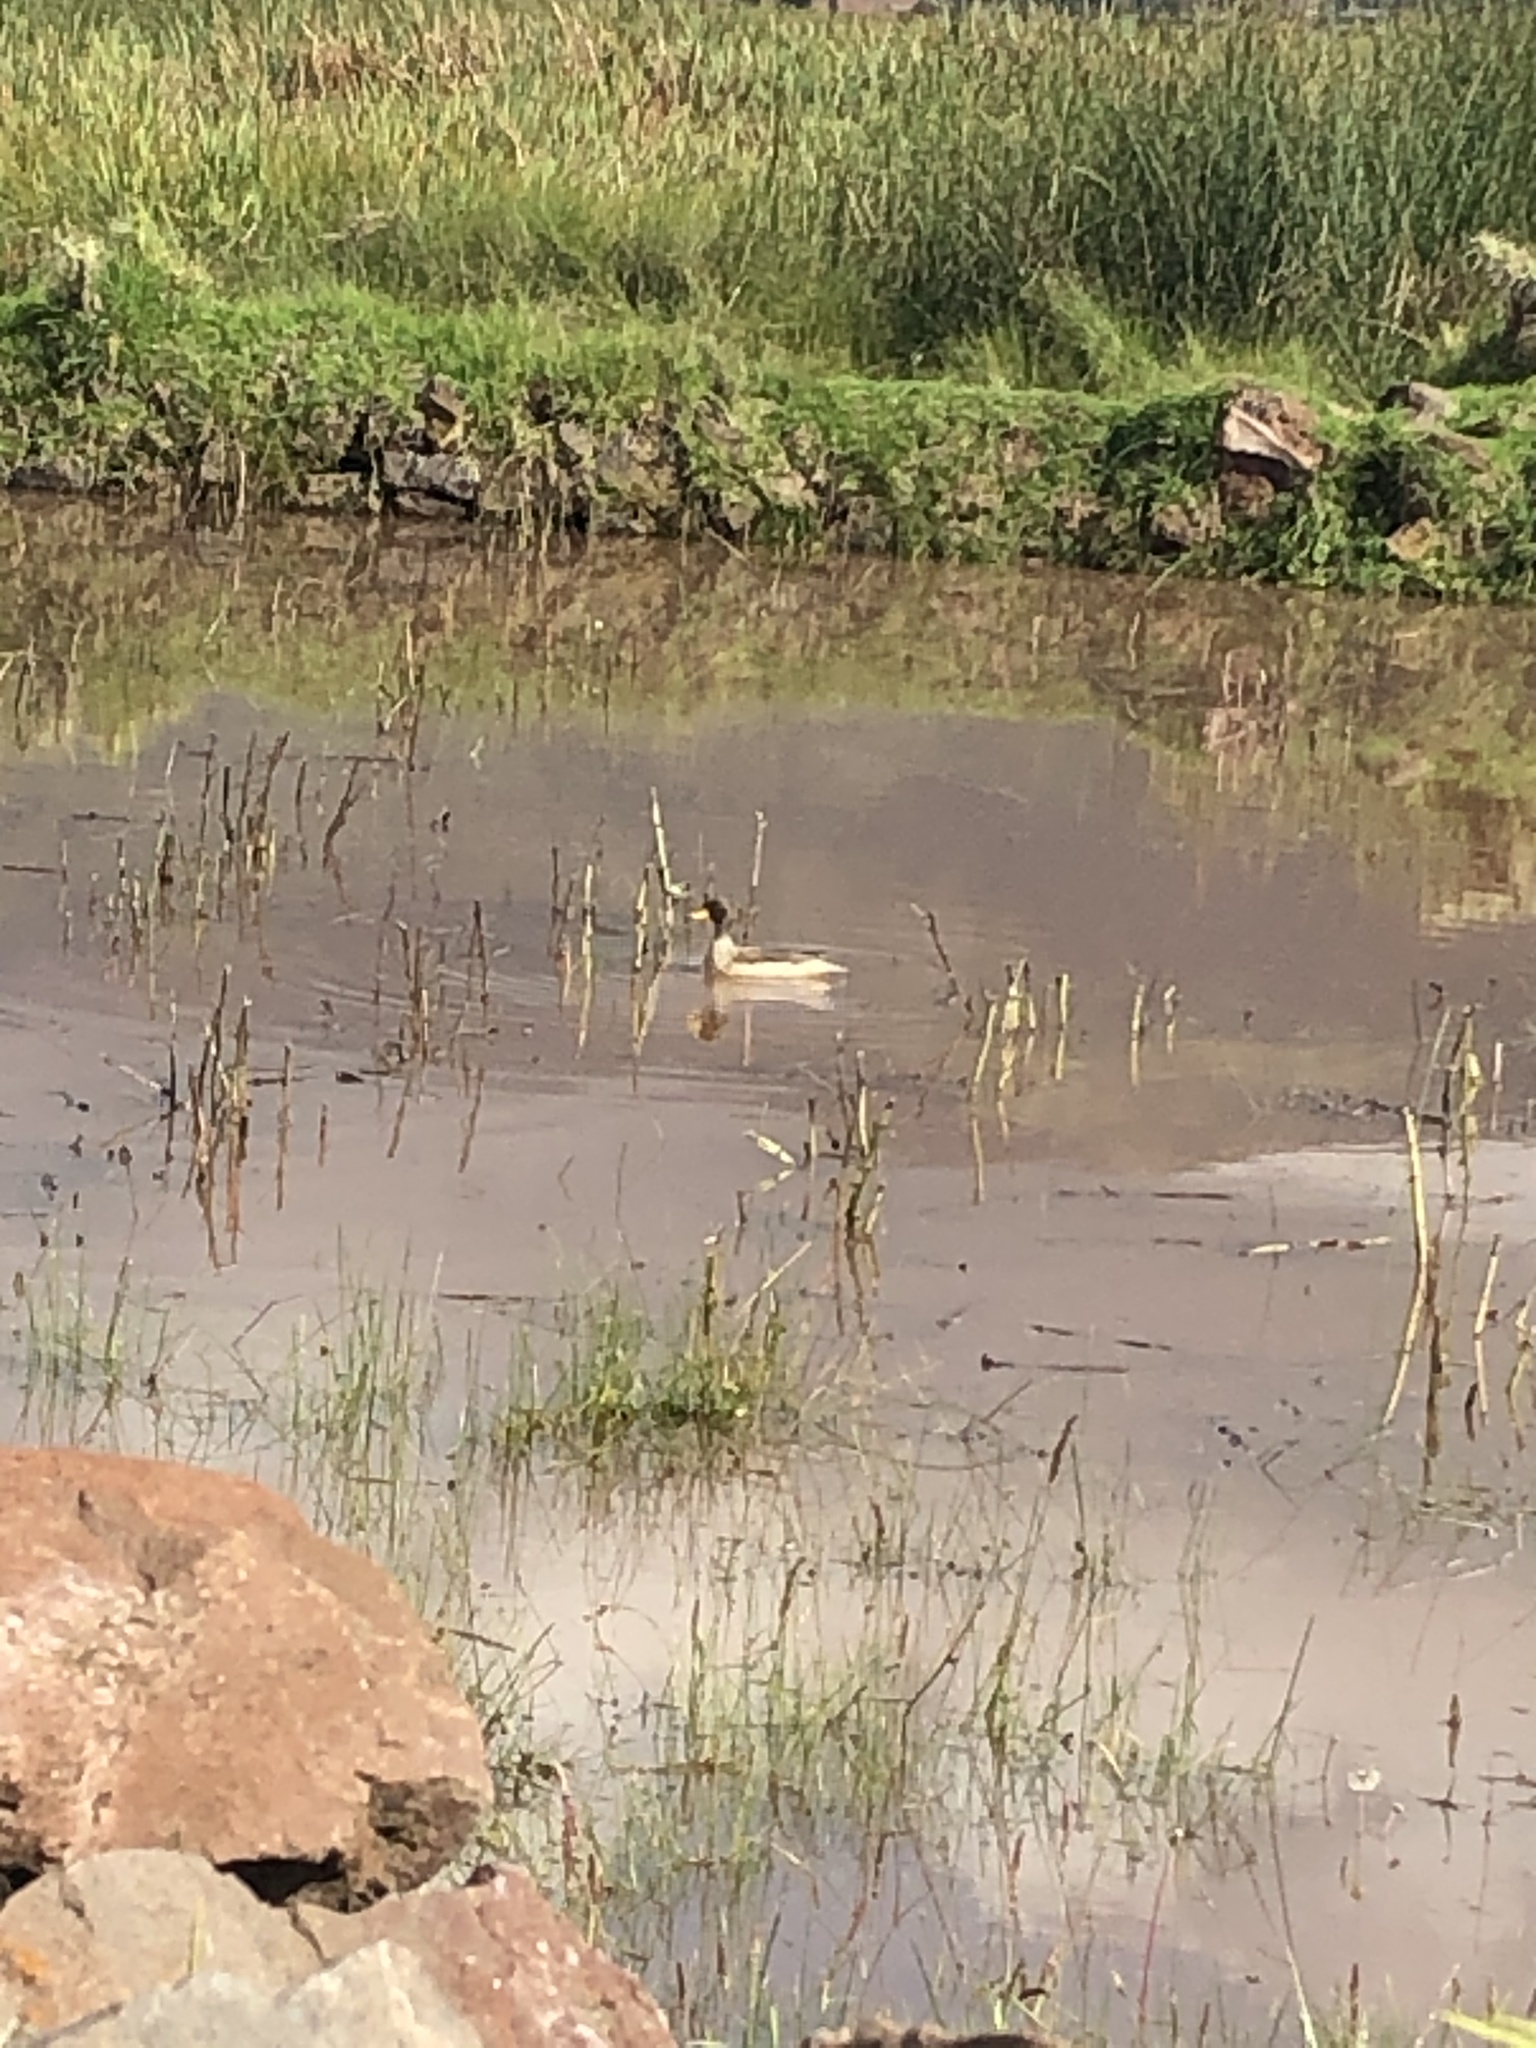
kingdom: Animalia
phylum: Chordata
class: Aves
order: Anseriformes
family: Anatidae
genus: Anas
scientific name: Anas flavirostris
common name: Yellow-billed teal
